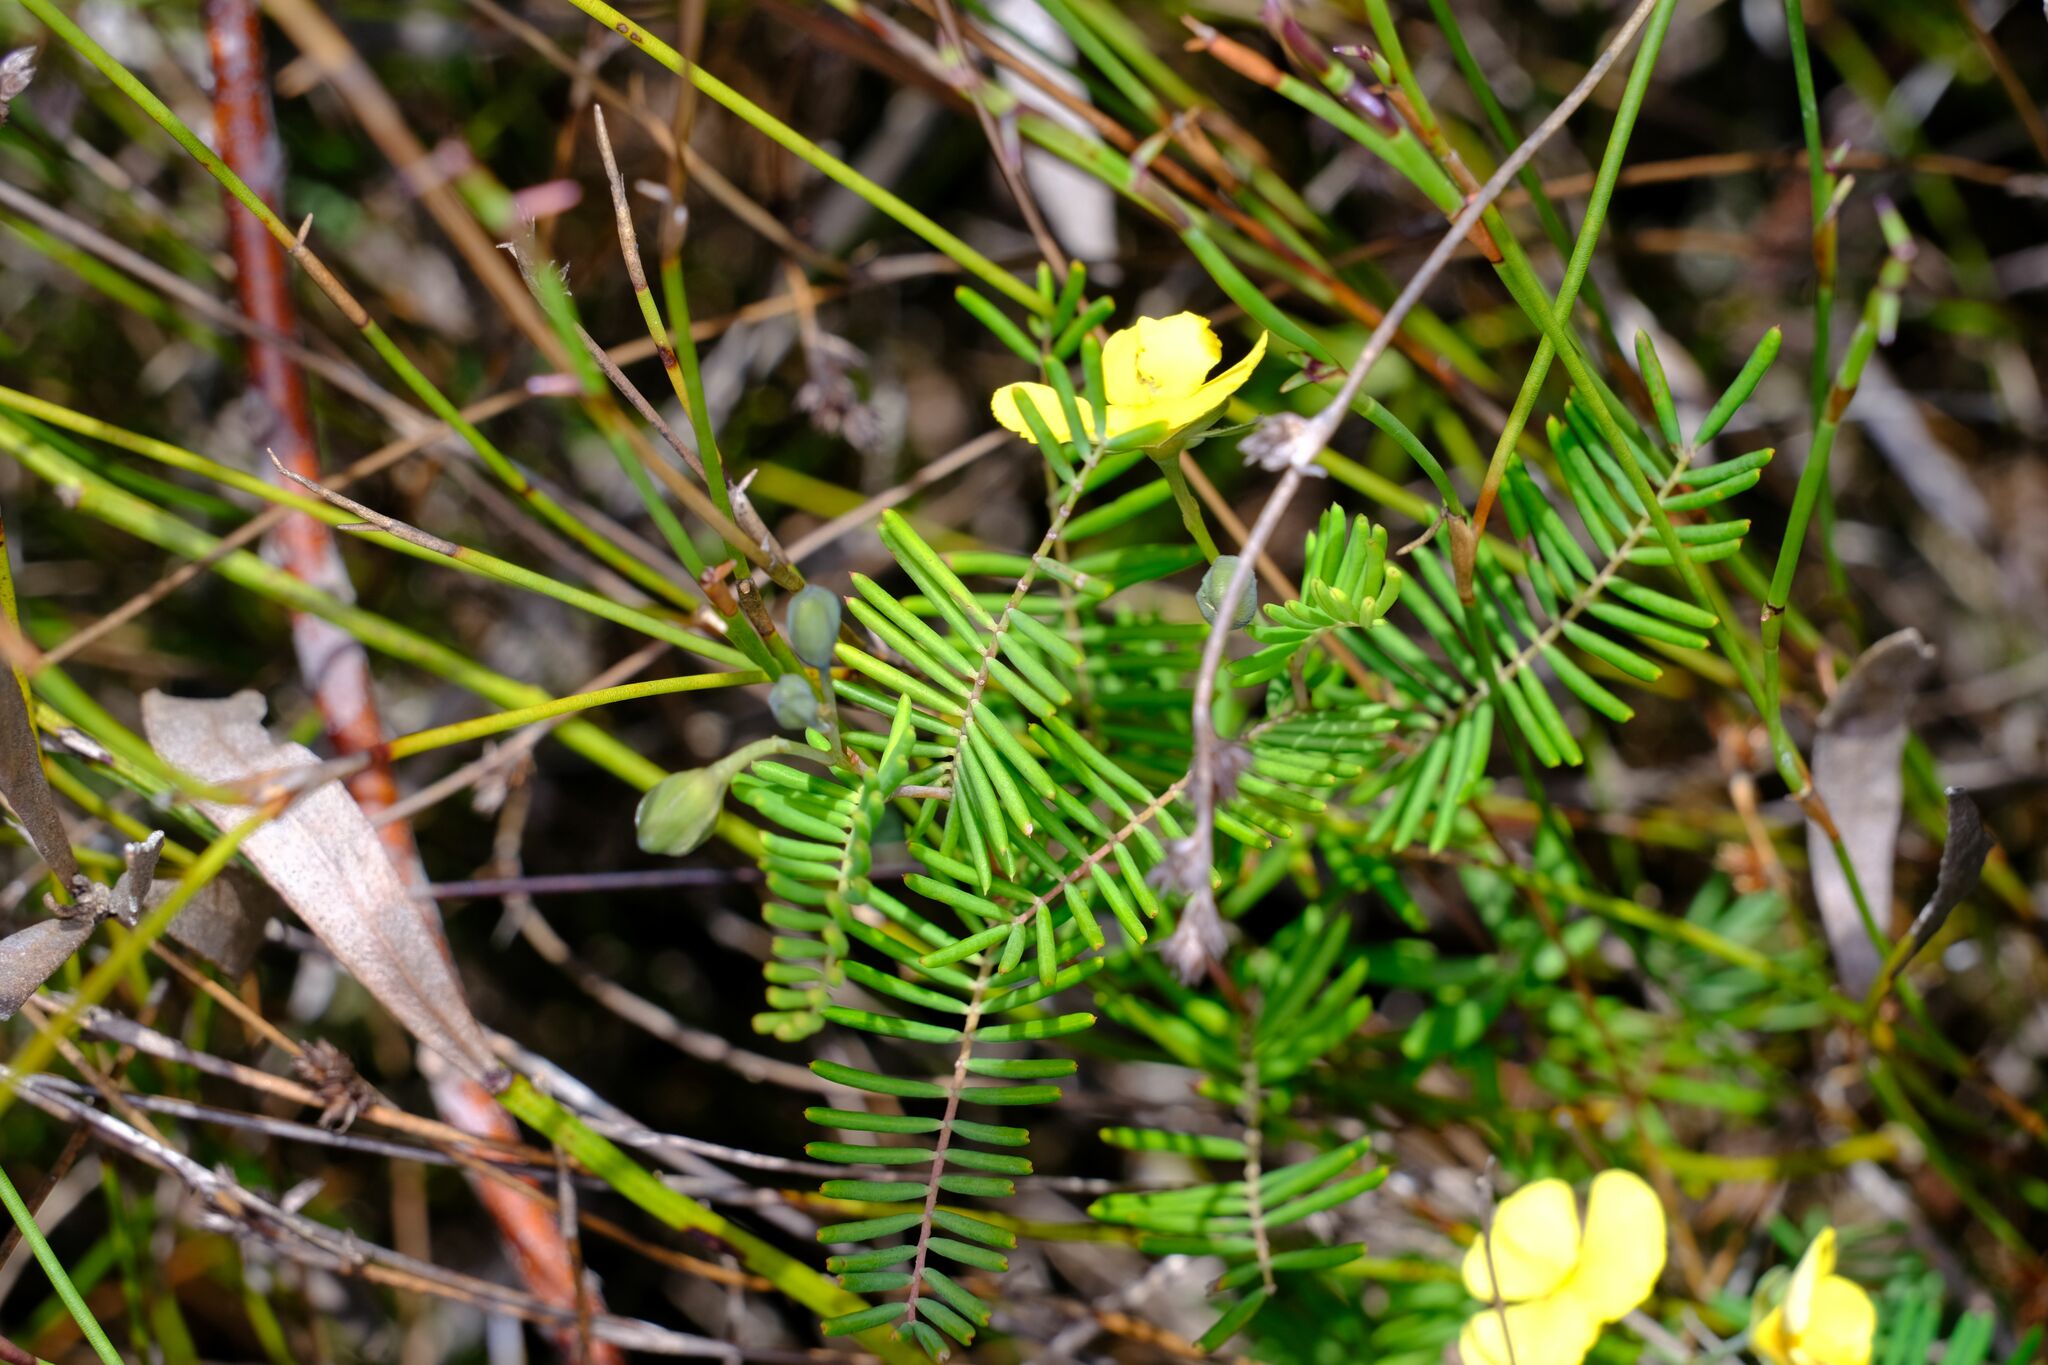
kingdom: Plantae
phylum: Tracheophyta
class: Magnoliopsida
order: Fabales
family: Fabaceae
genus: Gompholobium
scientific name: Gompholobium pinnatum
